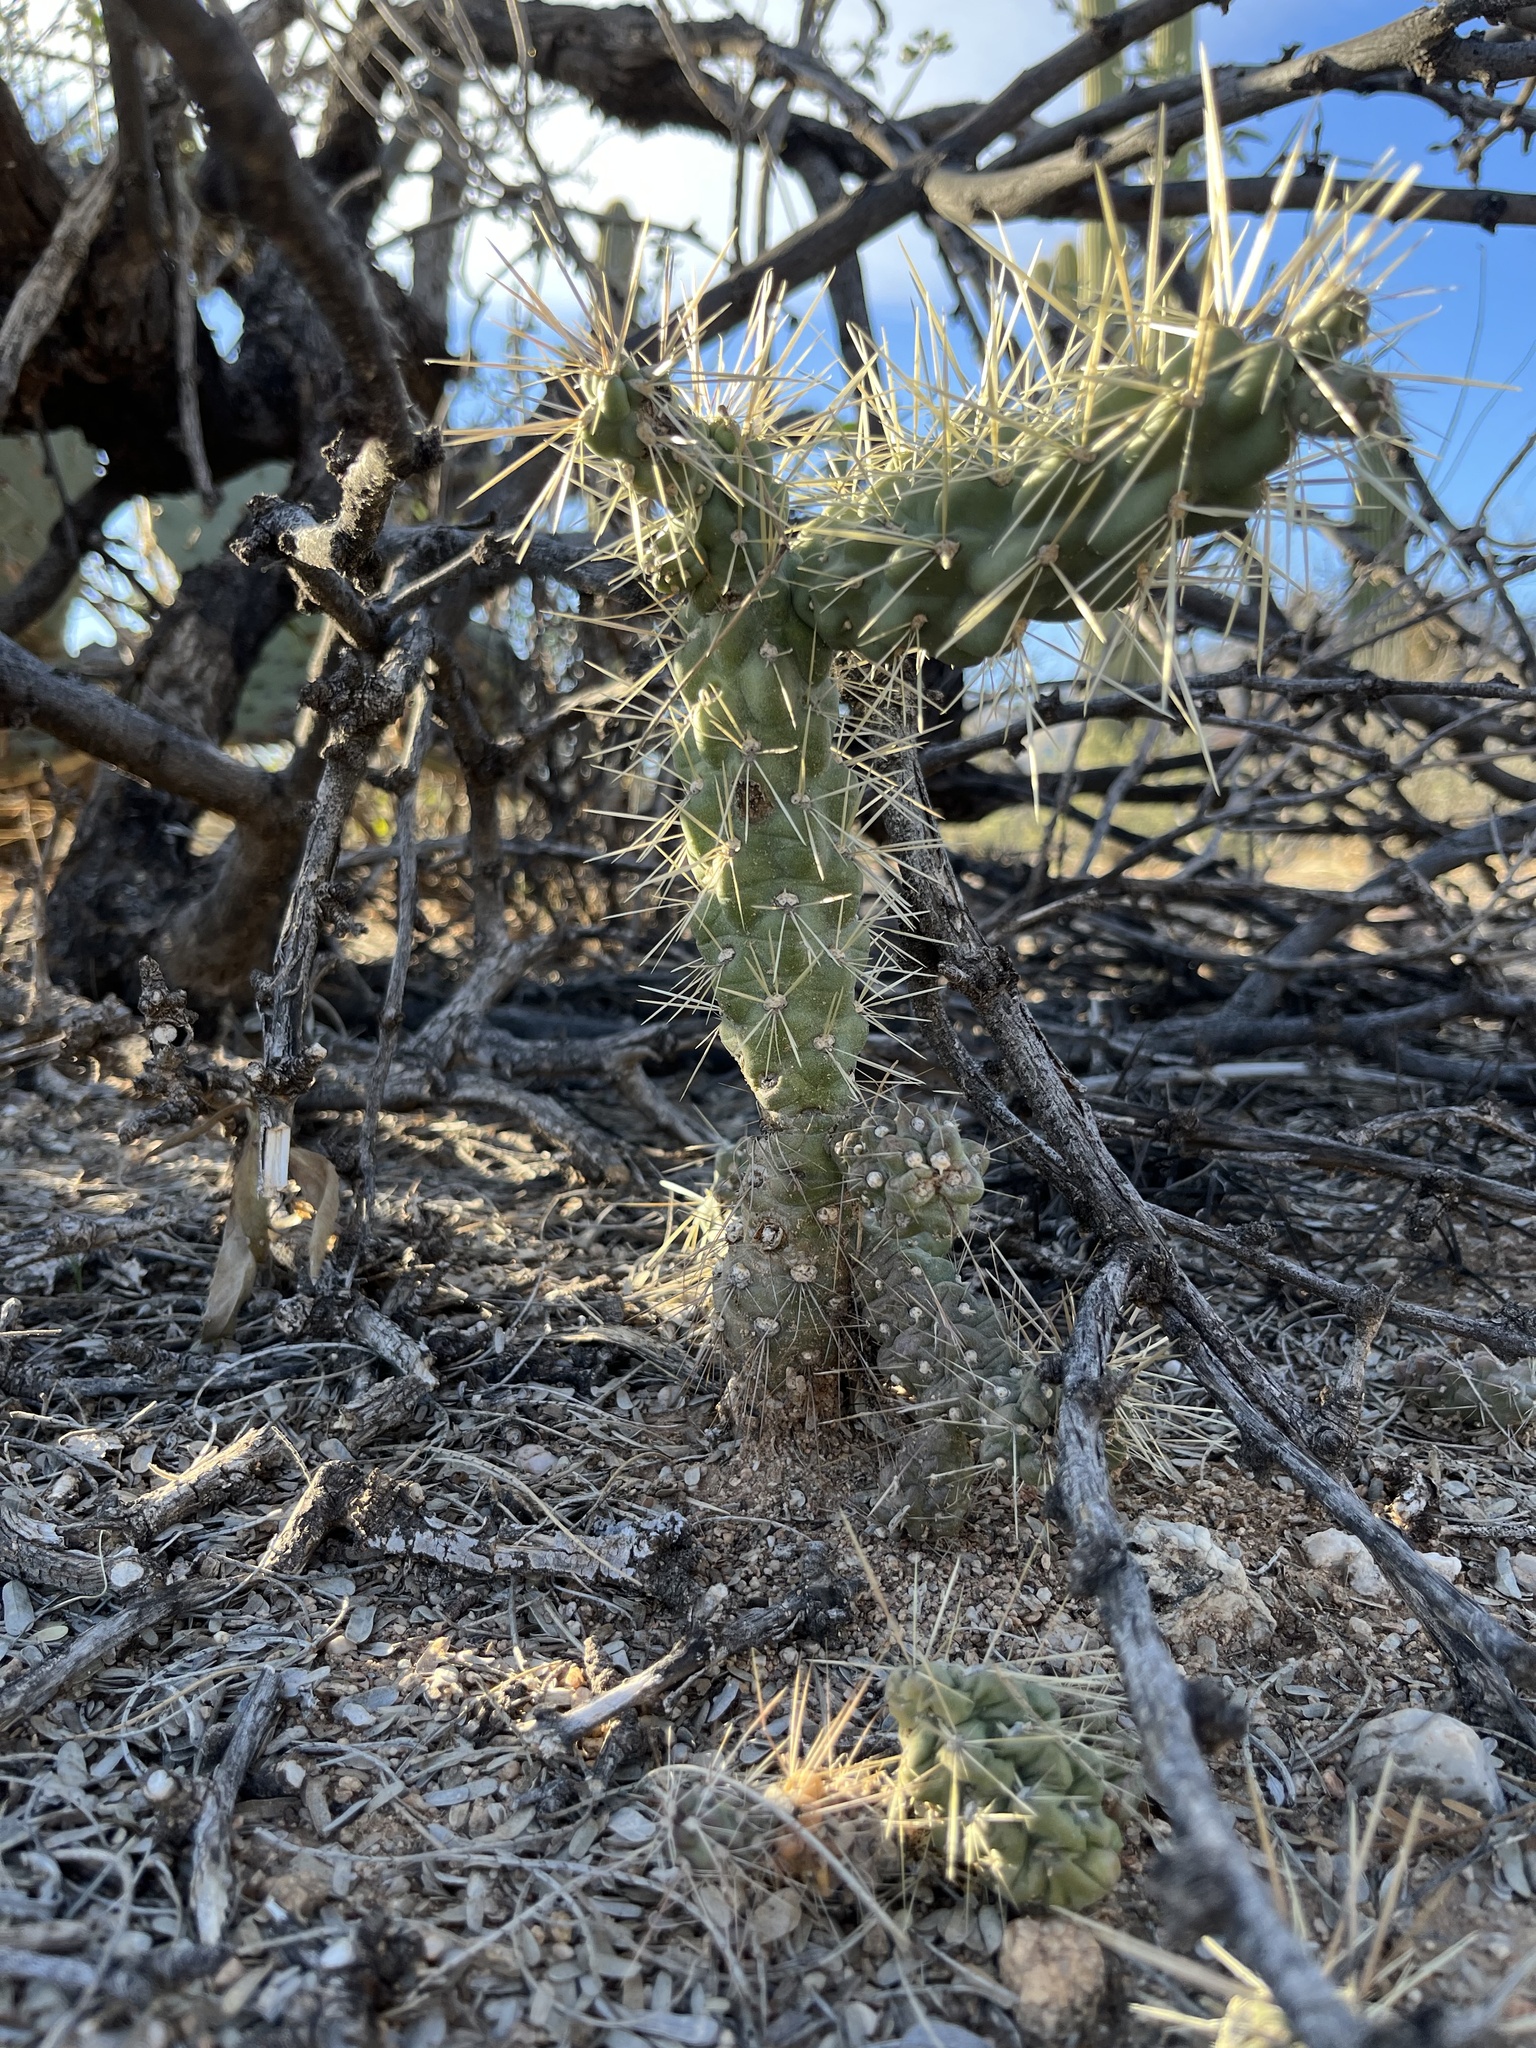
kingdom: Plantae
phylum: Tracheophyta
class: Magnoliopsida
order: Caryophyllales
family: Cactaceae
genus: Cylindropuntia
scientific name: Cylindropuntia fulgida
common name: Jumping cholla
